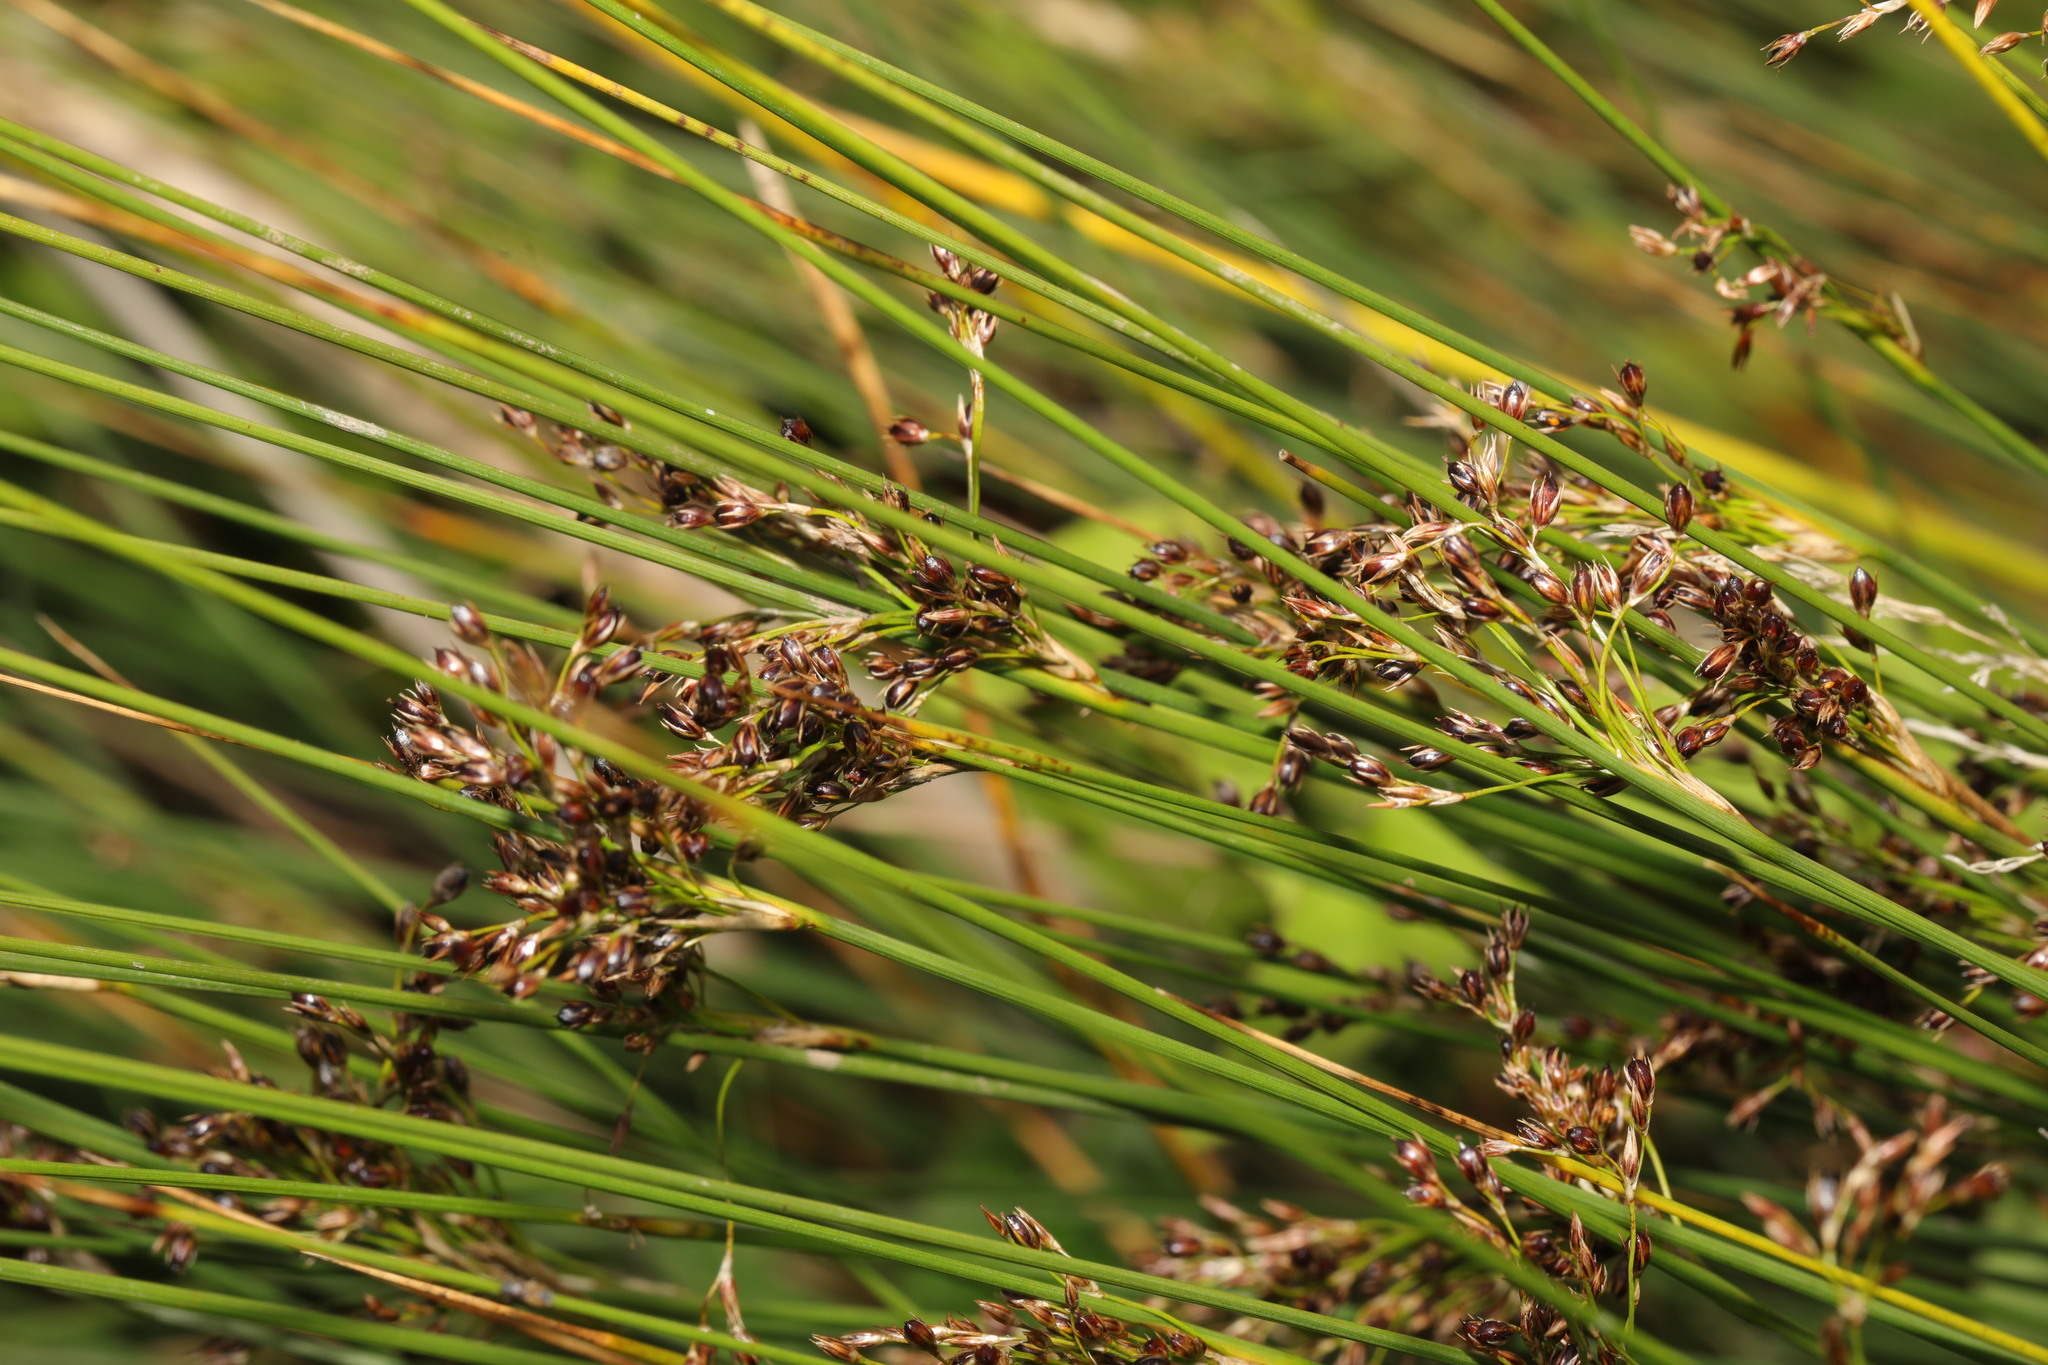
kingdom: Plantae
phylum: Tracheophyta
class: Liliopsida
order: Poales
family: Juncaceae
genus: Juncus
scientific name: Juncus inflexus
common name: Hard rush
